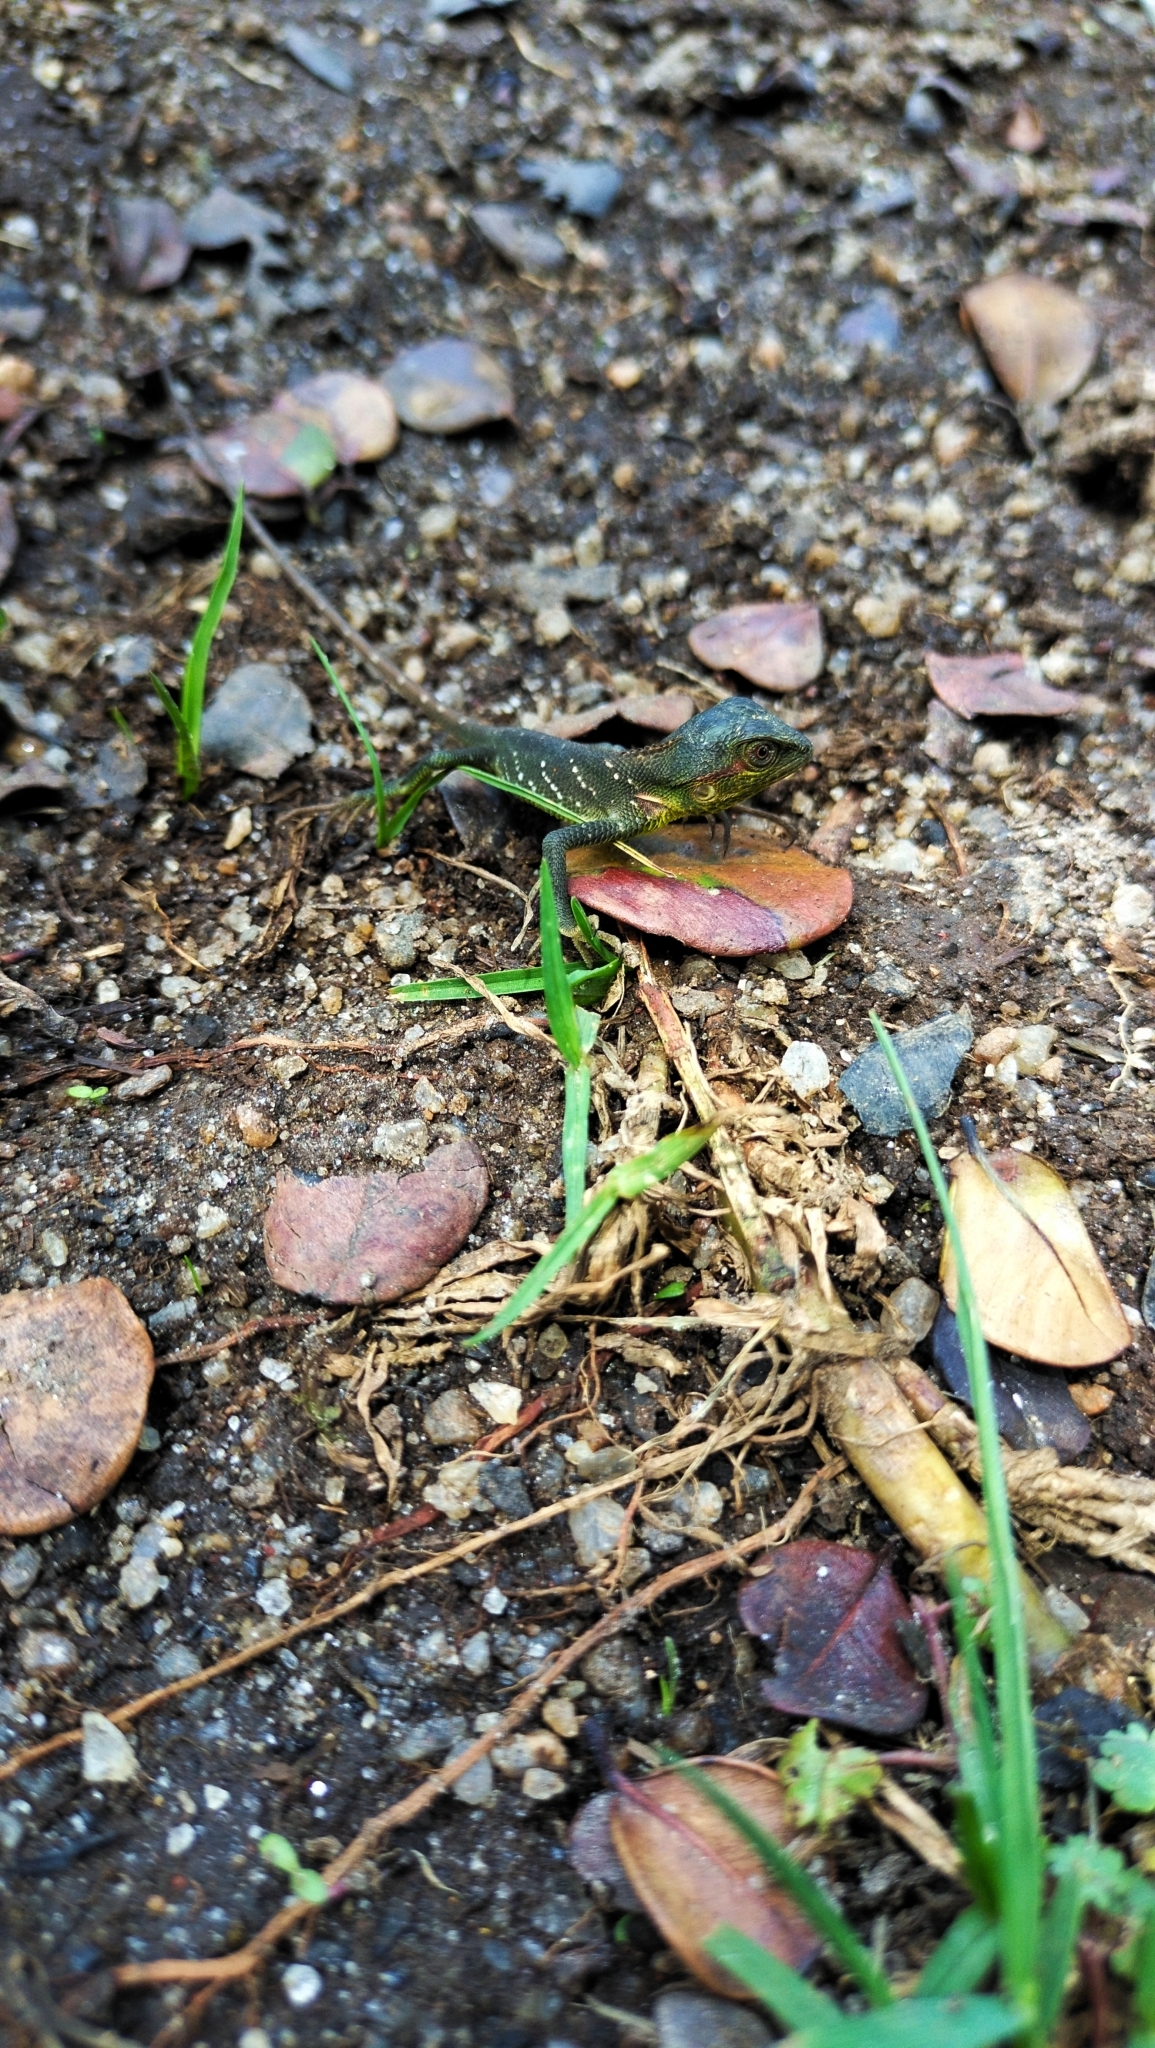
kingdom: Animalia
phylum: Chordata
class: Squamata
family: Agamidae
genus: Calotes
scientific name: Calotes nigrilabris
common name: Black-cheek lizard
